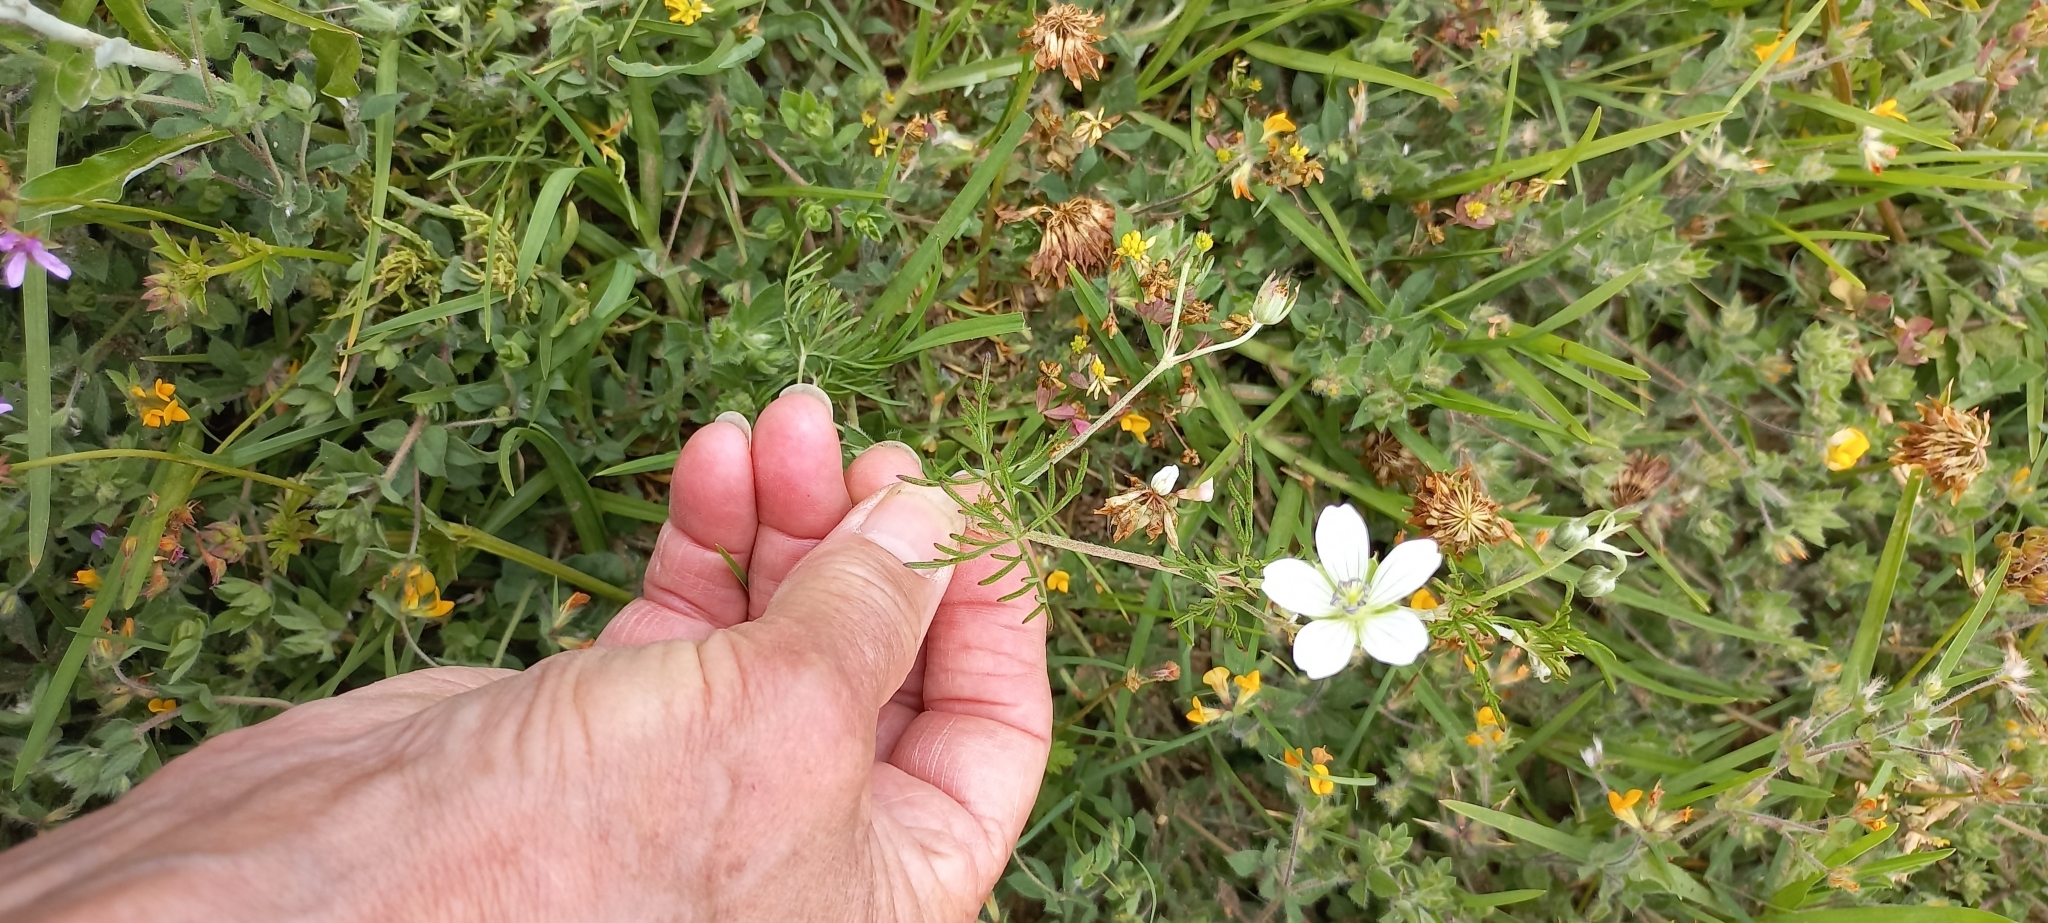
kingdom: Plantae
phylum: Tracheophyta
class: Magnoliopsida
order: Geraniales
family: Geraniaceae
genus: Geranium
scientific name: Geranium incanum
